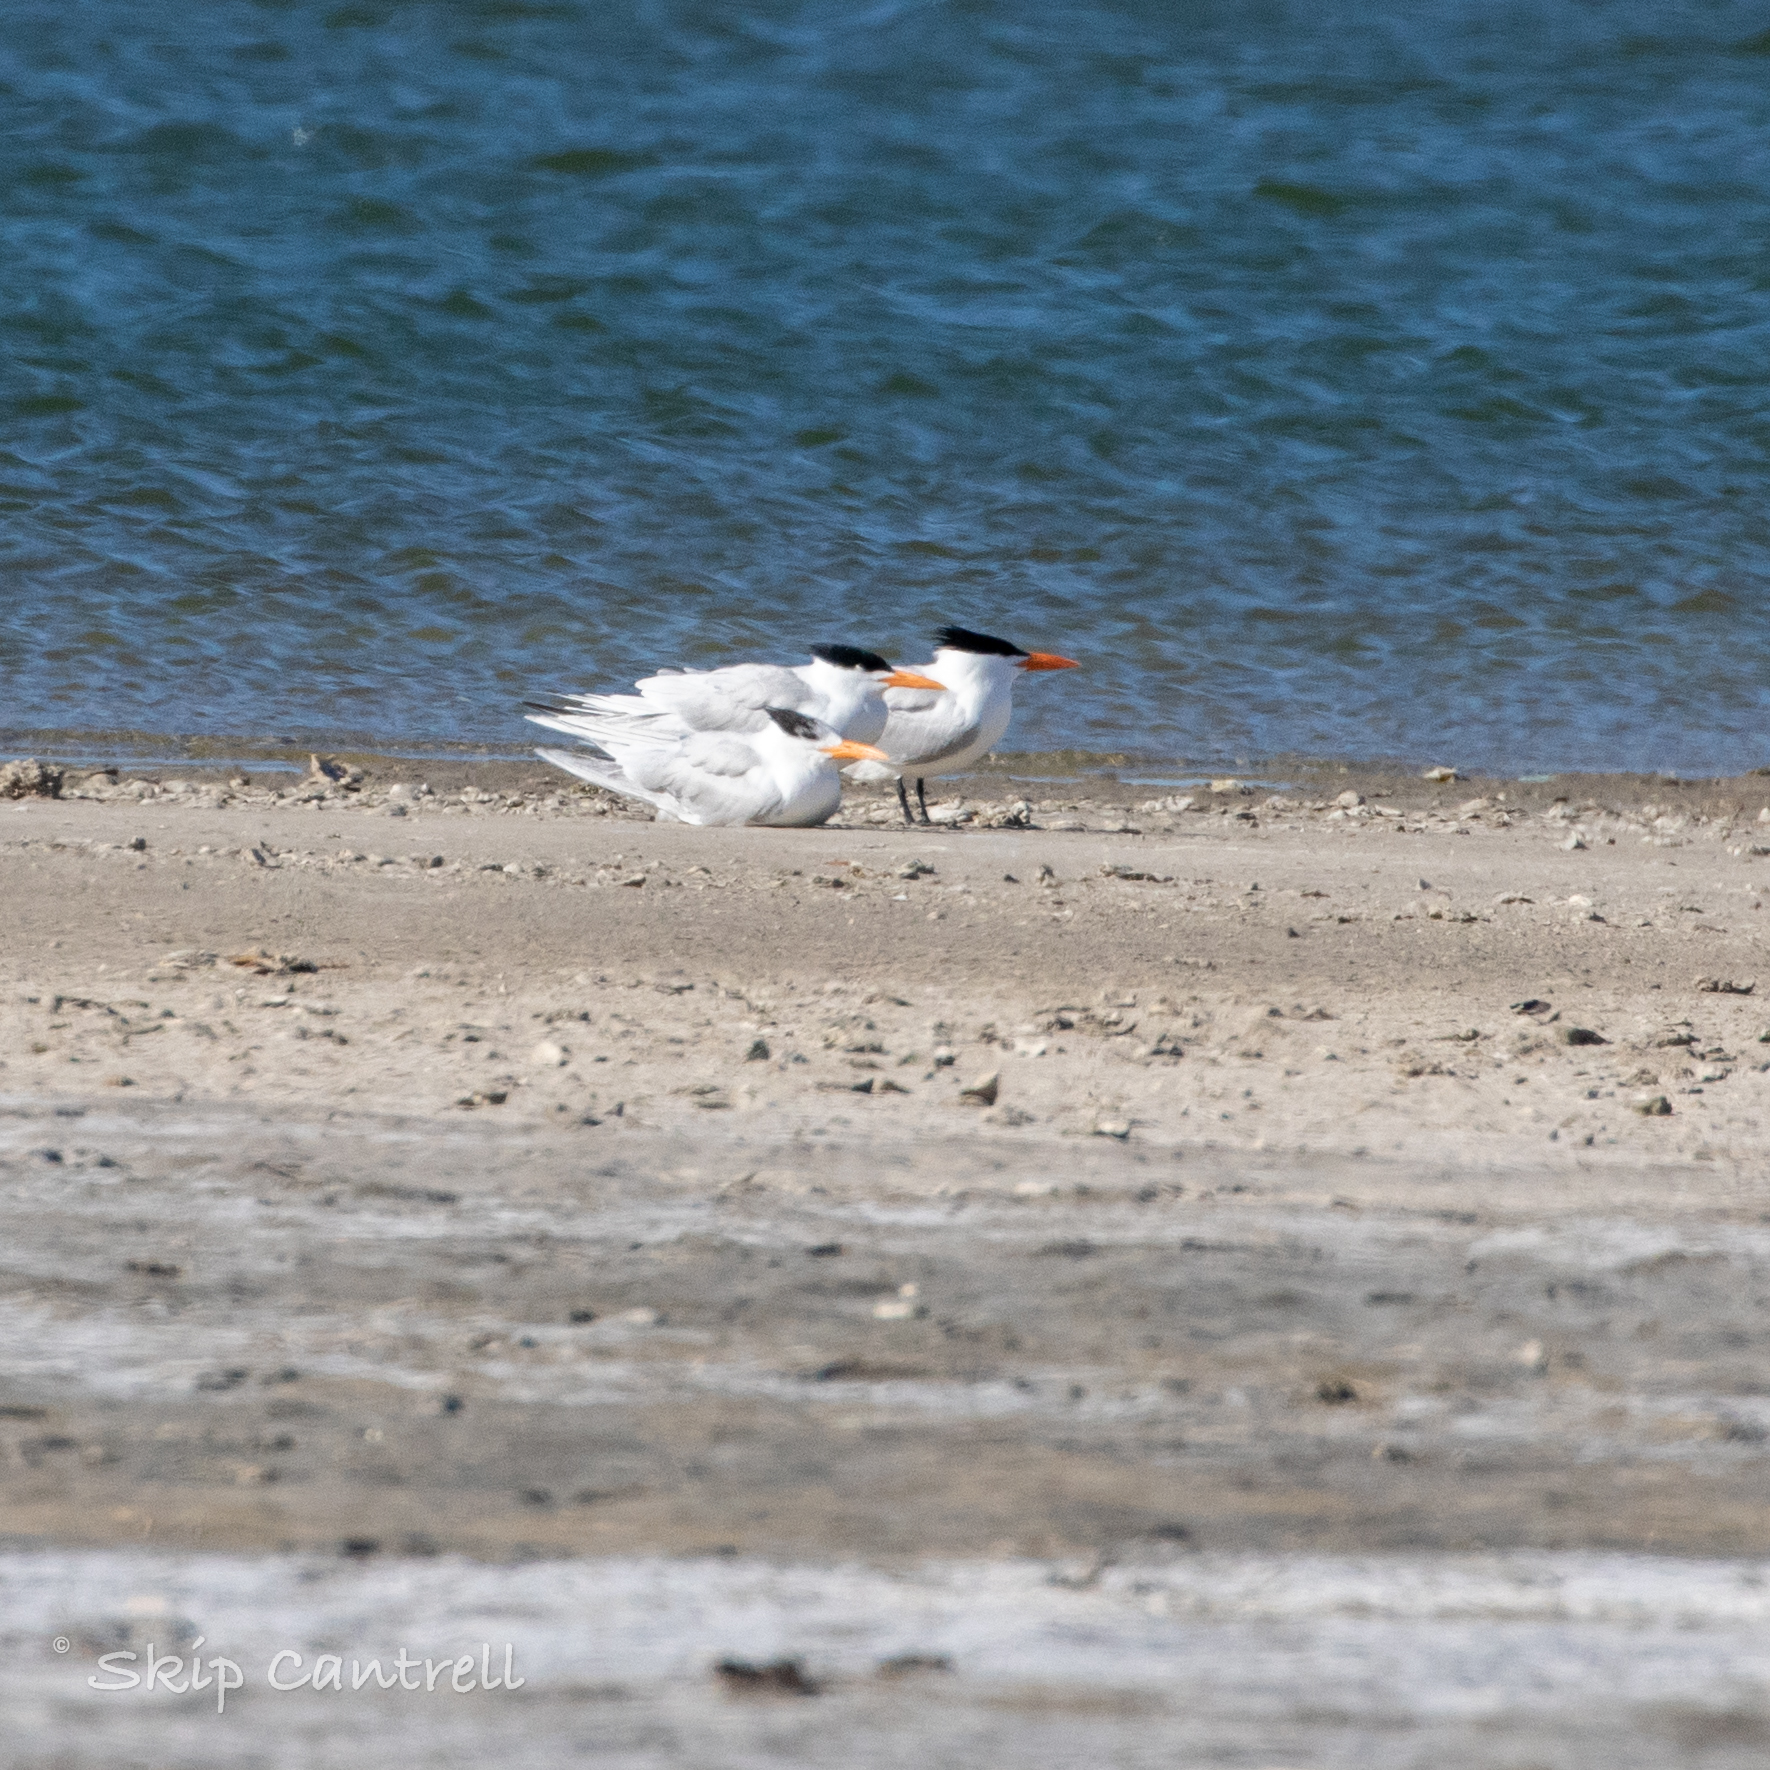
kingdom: Animalia
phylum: Chordata
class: Aves
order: Charadriiformes
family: Laridae
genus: Thalasseus
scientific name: Thalasseus maximus
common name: Royal tern
